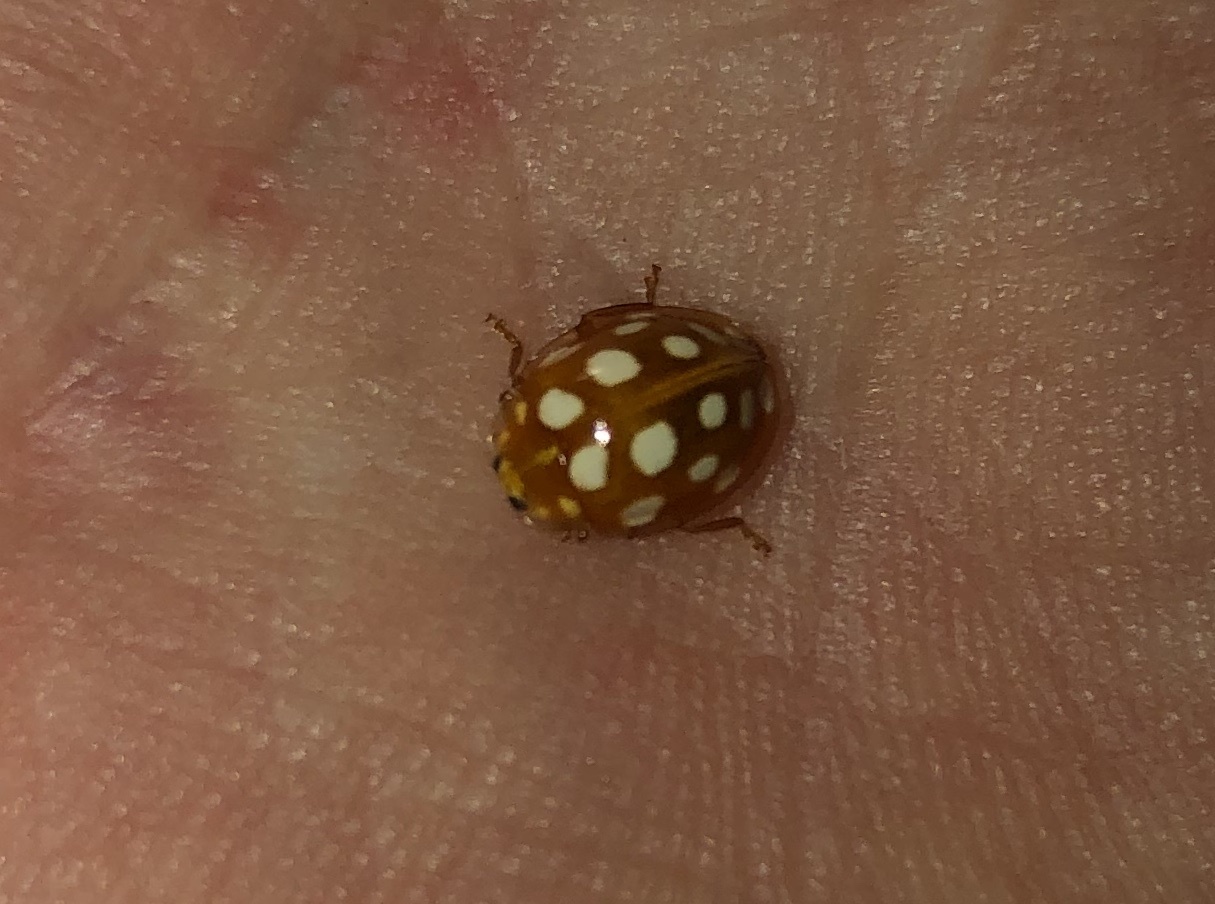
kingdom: Animalia
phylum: Arthropoda
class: Insecta
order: Coleoptera
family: Coccinellidae
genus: Halyzia
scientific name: Halyzia sedecimguttata
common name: Orange ladybird
